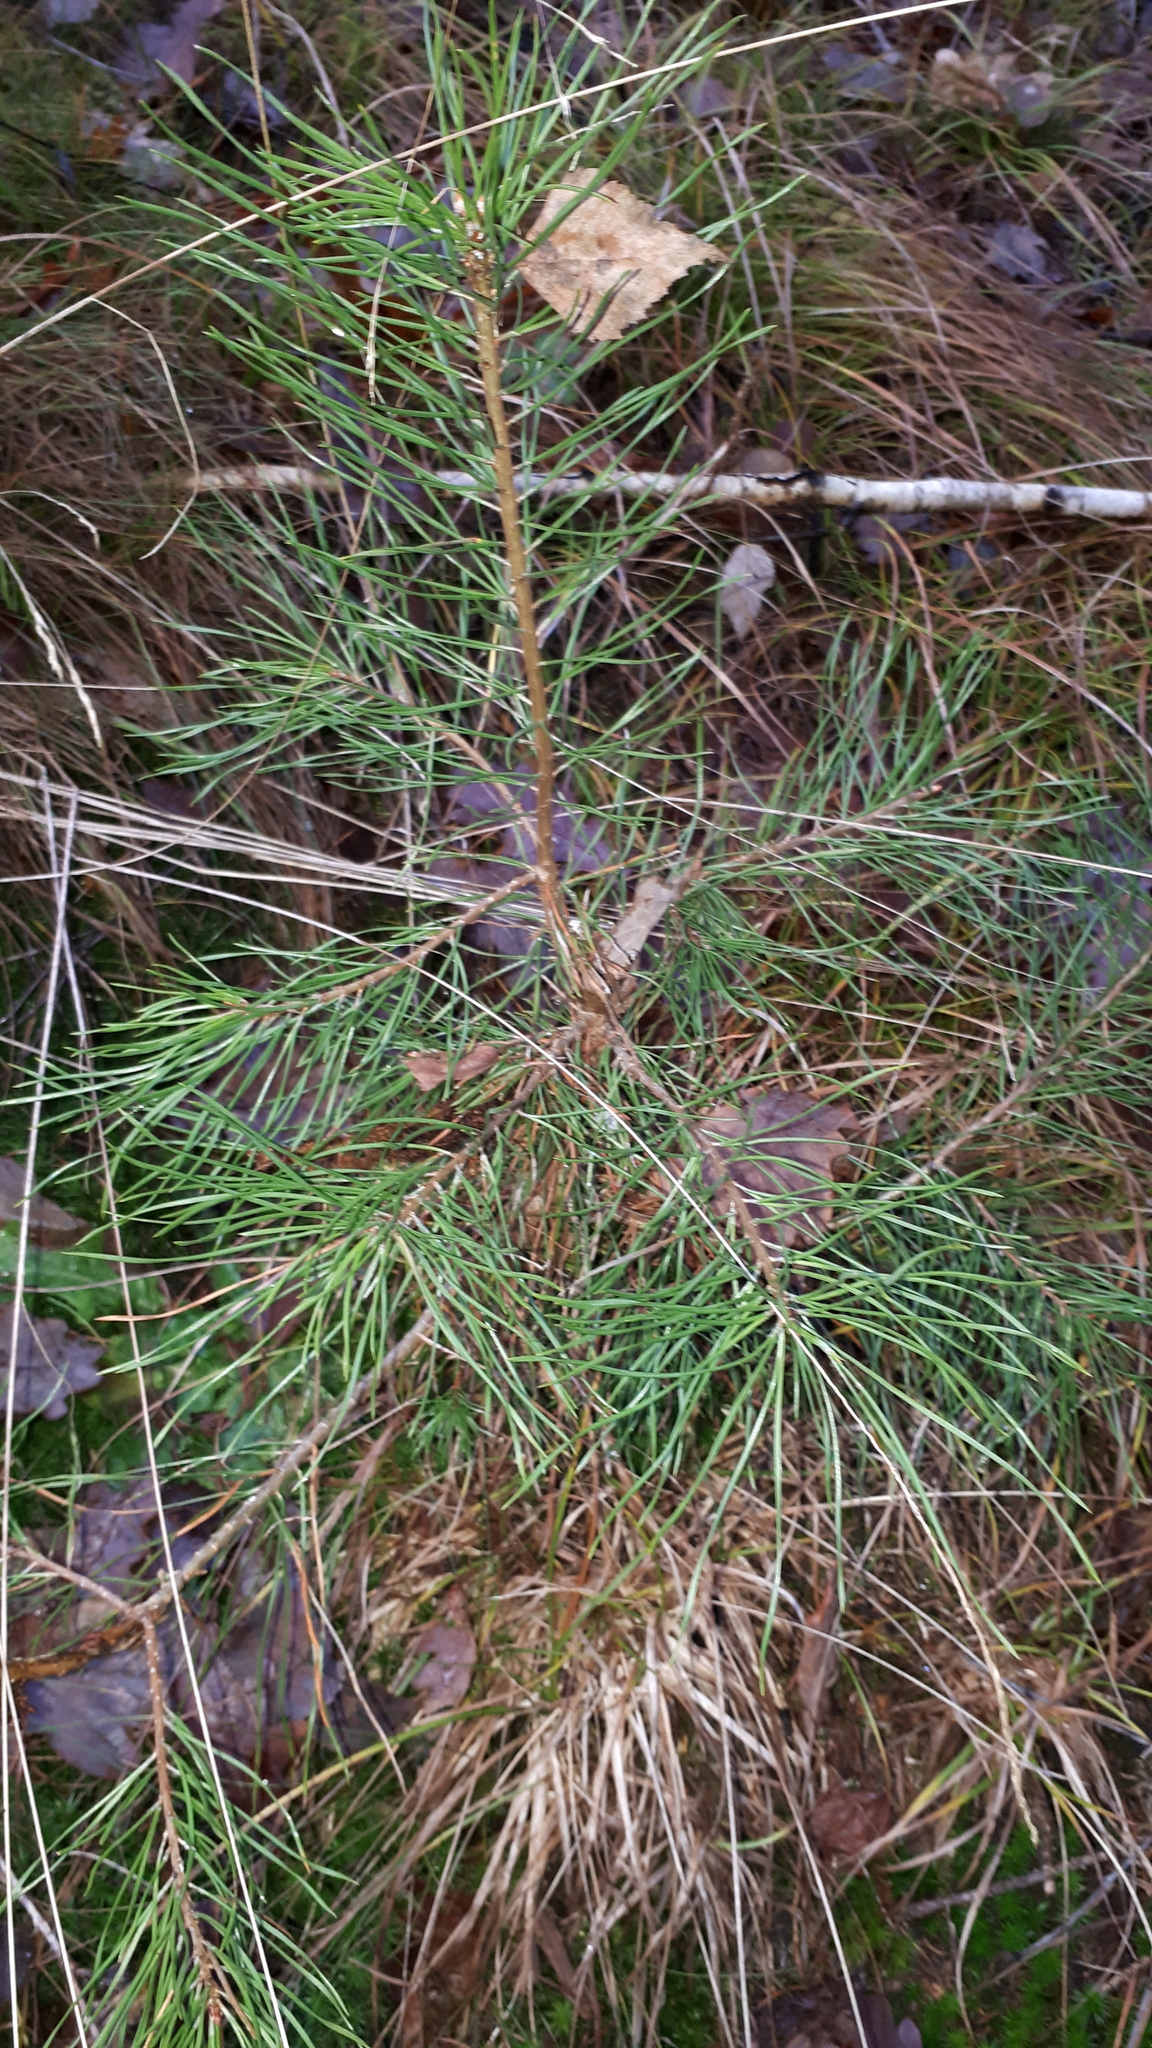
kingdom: Plantae
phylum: Tracheophyta
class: Pinopsida
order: Pinales
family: Pinaceae
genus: Pinus
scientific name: Pinus sylvestris
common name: Scots pine
